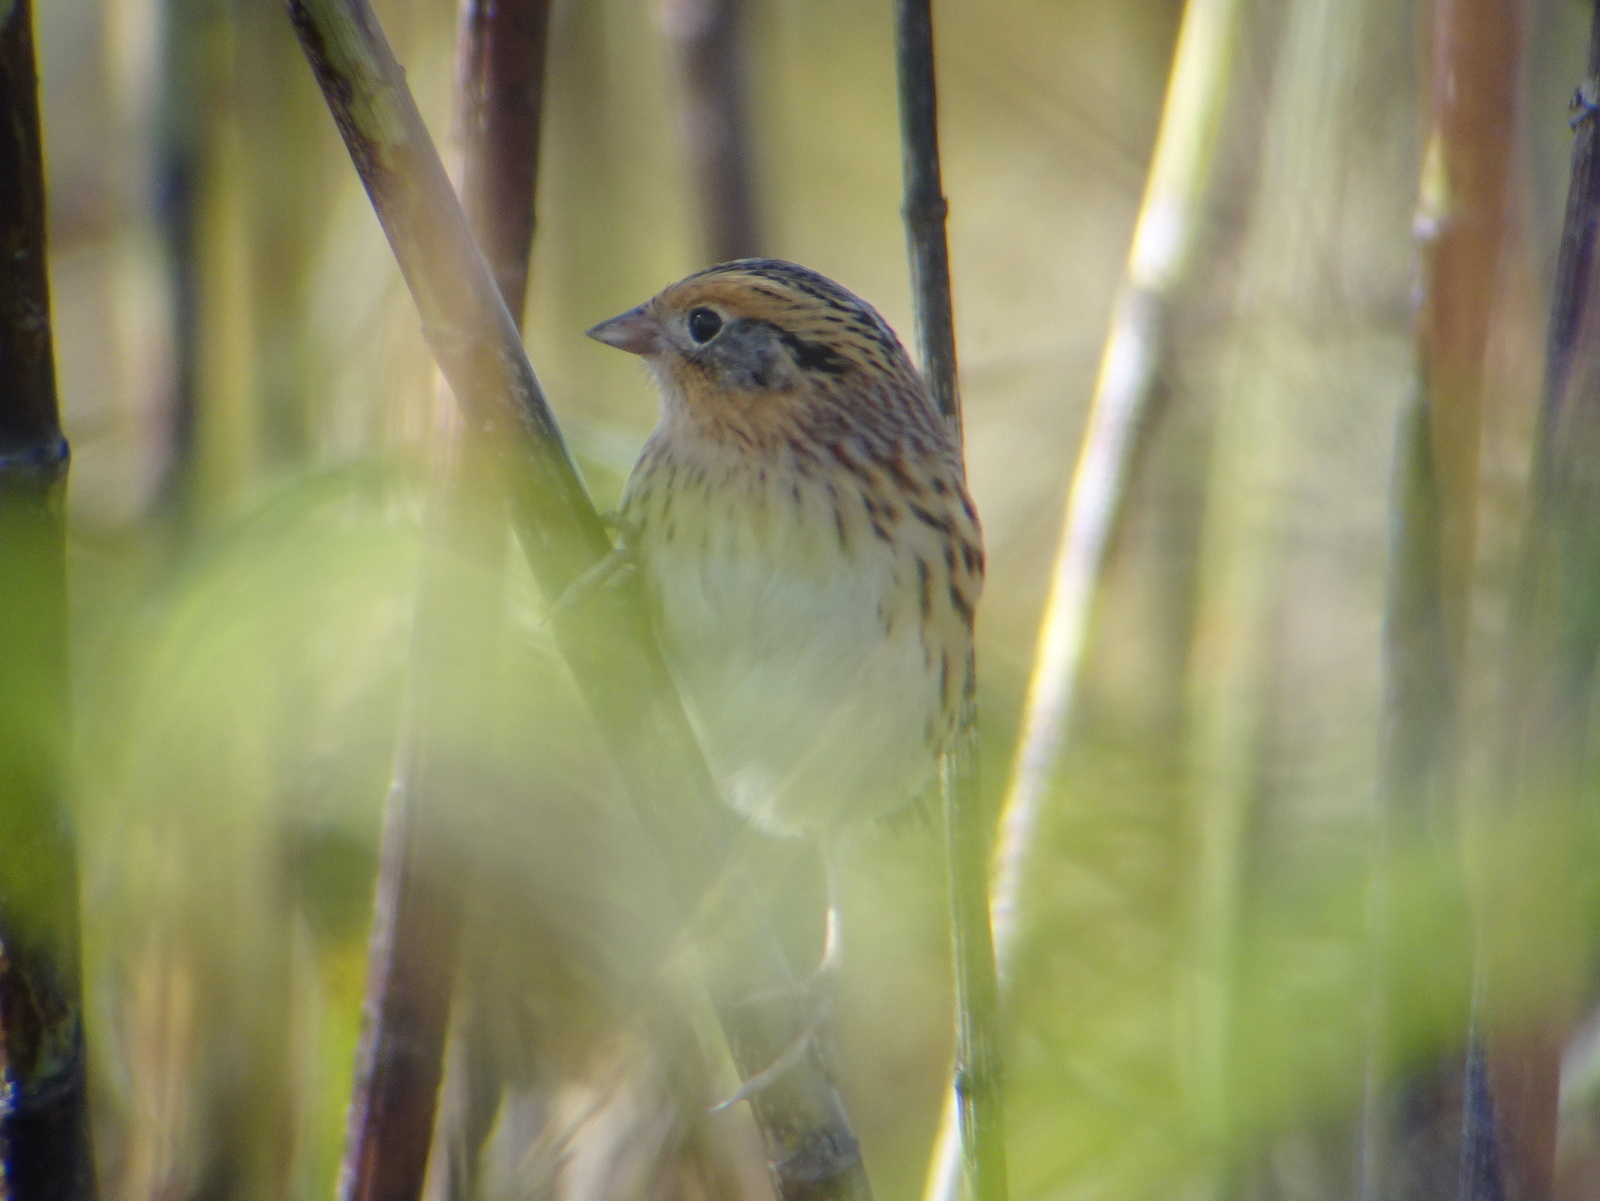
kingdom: Animalia
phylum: Chordata
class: Aves
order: Passeriformes
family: Passerellidae
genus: Ammospiza
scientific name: Ammospiza leconteii
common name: Le conte's sparrow
